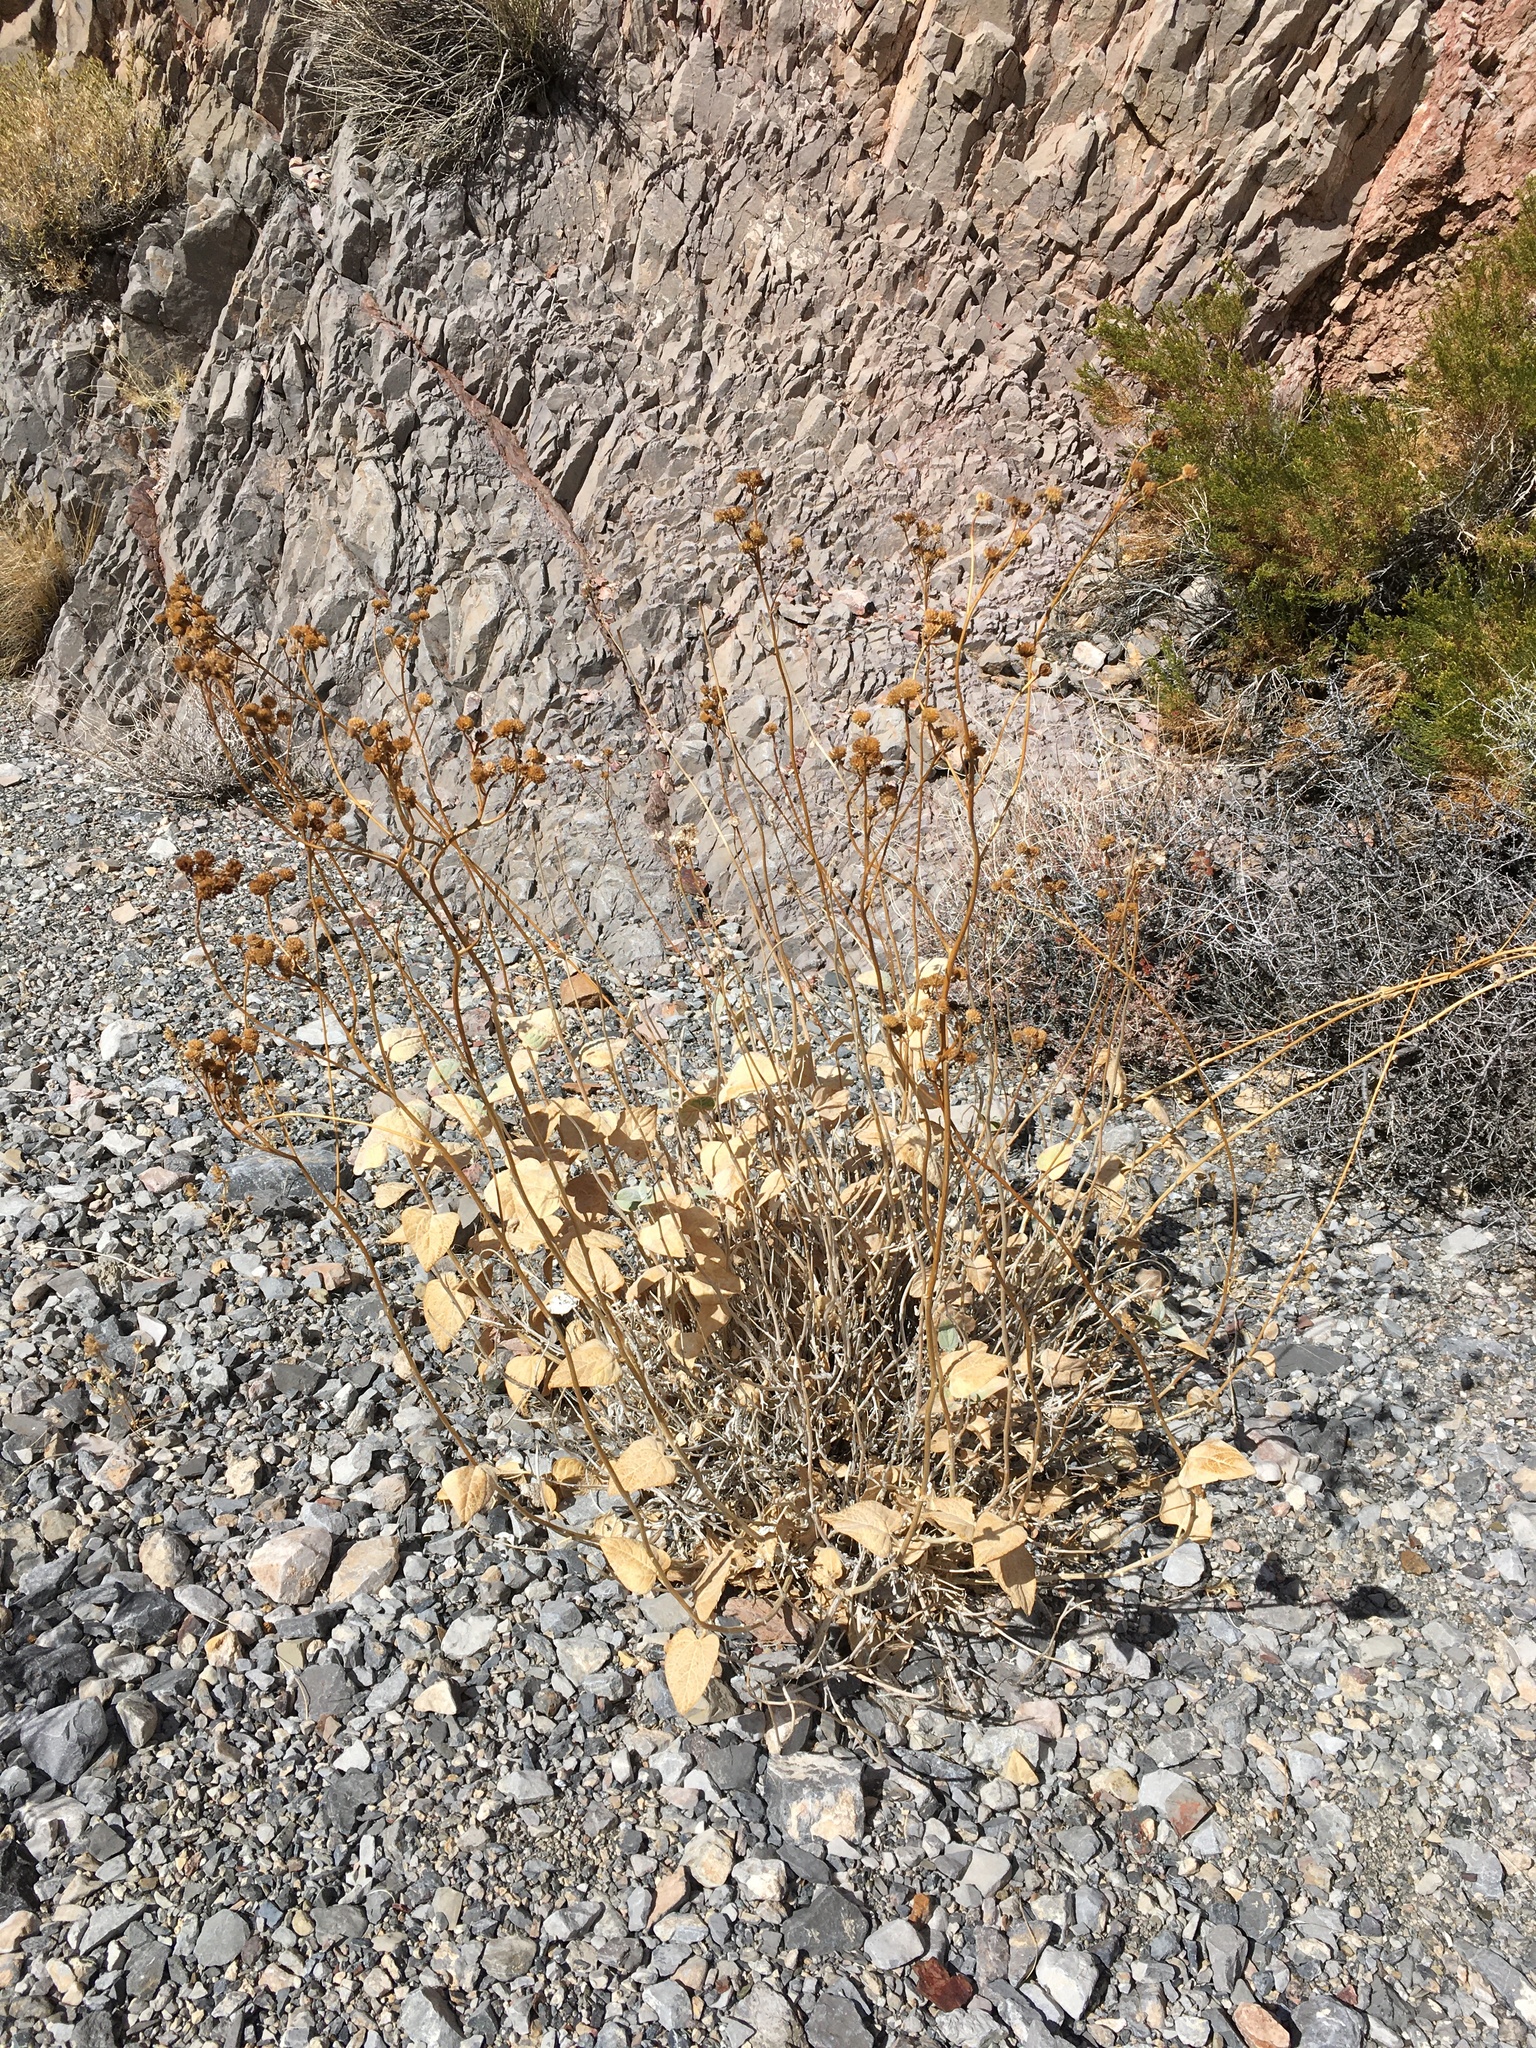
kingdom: Plantae
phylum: Tracheophyta
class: Magnoliopsida
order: Asterales
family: Asteraceae
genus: Bahiopsis
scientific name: Bahiopsis reticulata
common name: Death valley goldeneye
